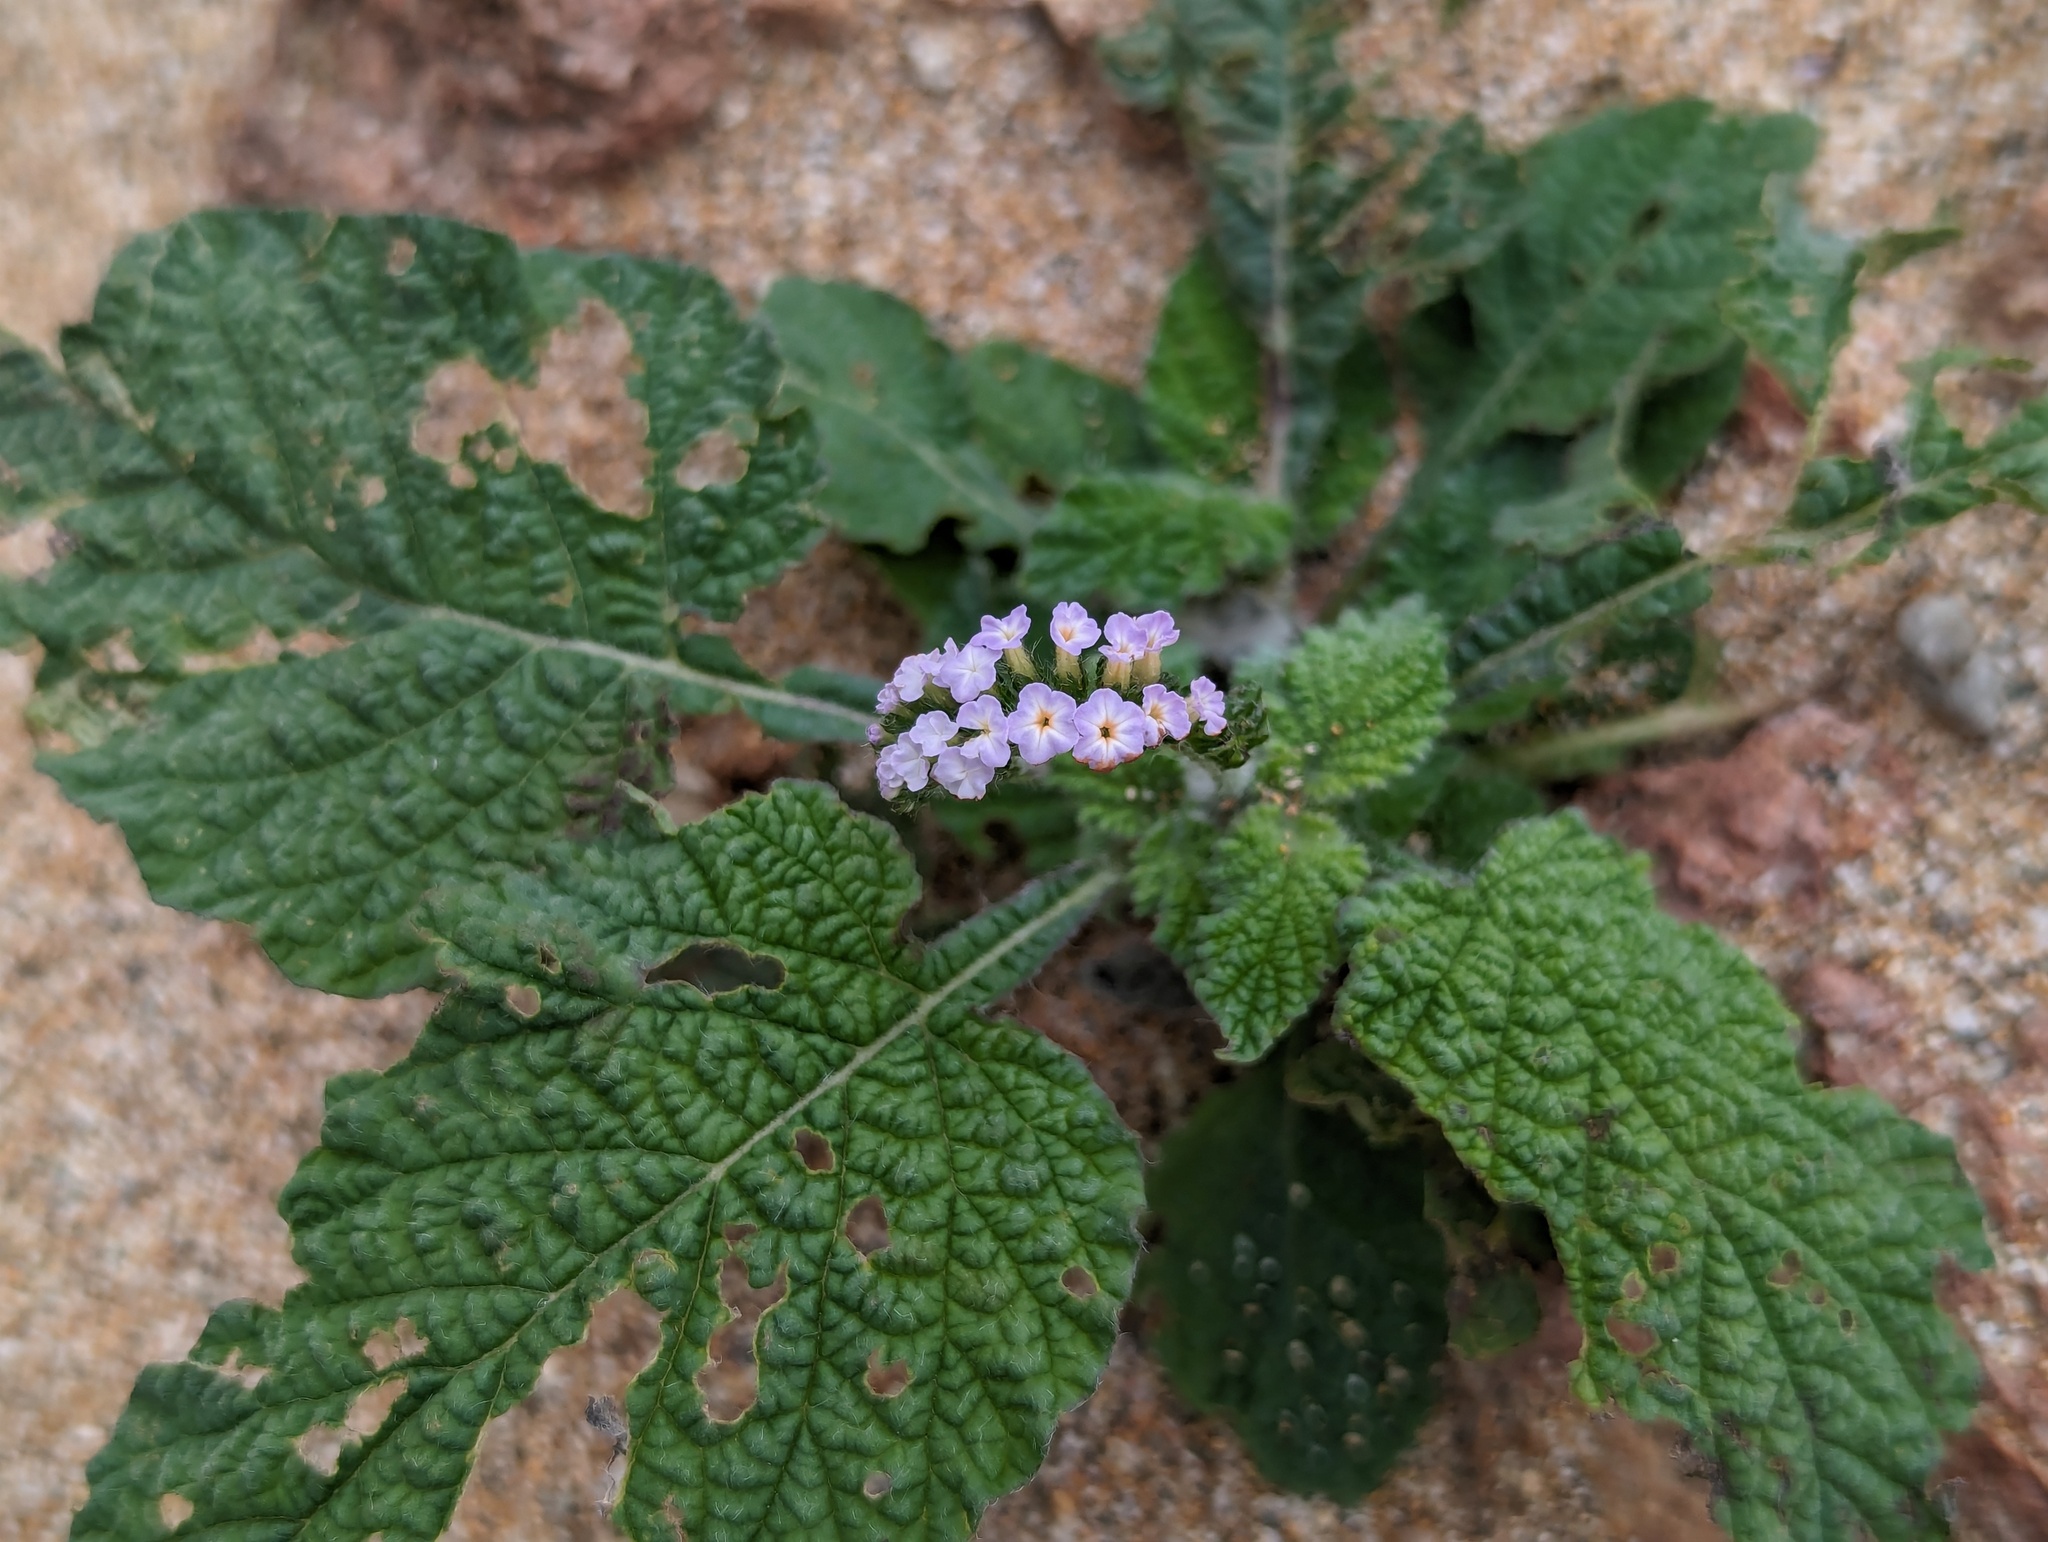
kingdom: Plantae
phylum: Tracheophyta
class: Magnoliopsida
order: Boraginales
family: Heliotropiaceae
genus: Heliotropium
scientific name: Heliotropium indicum
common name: Indian heliotrope
